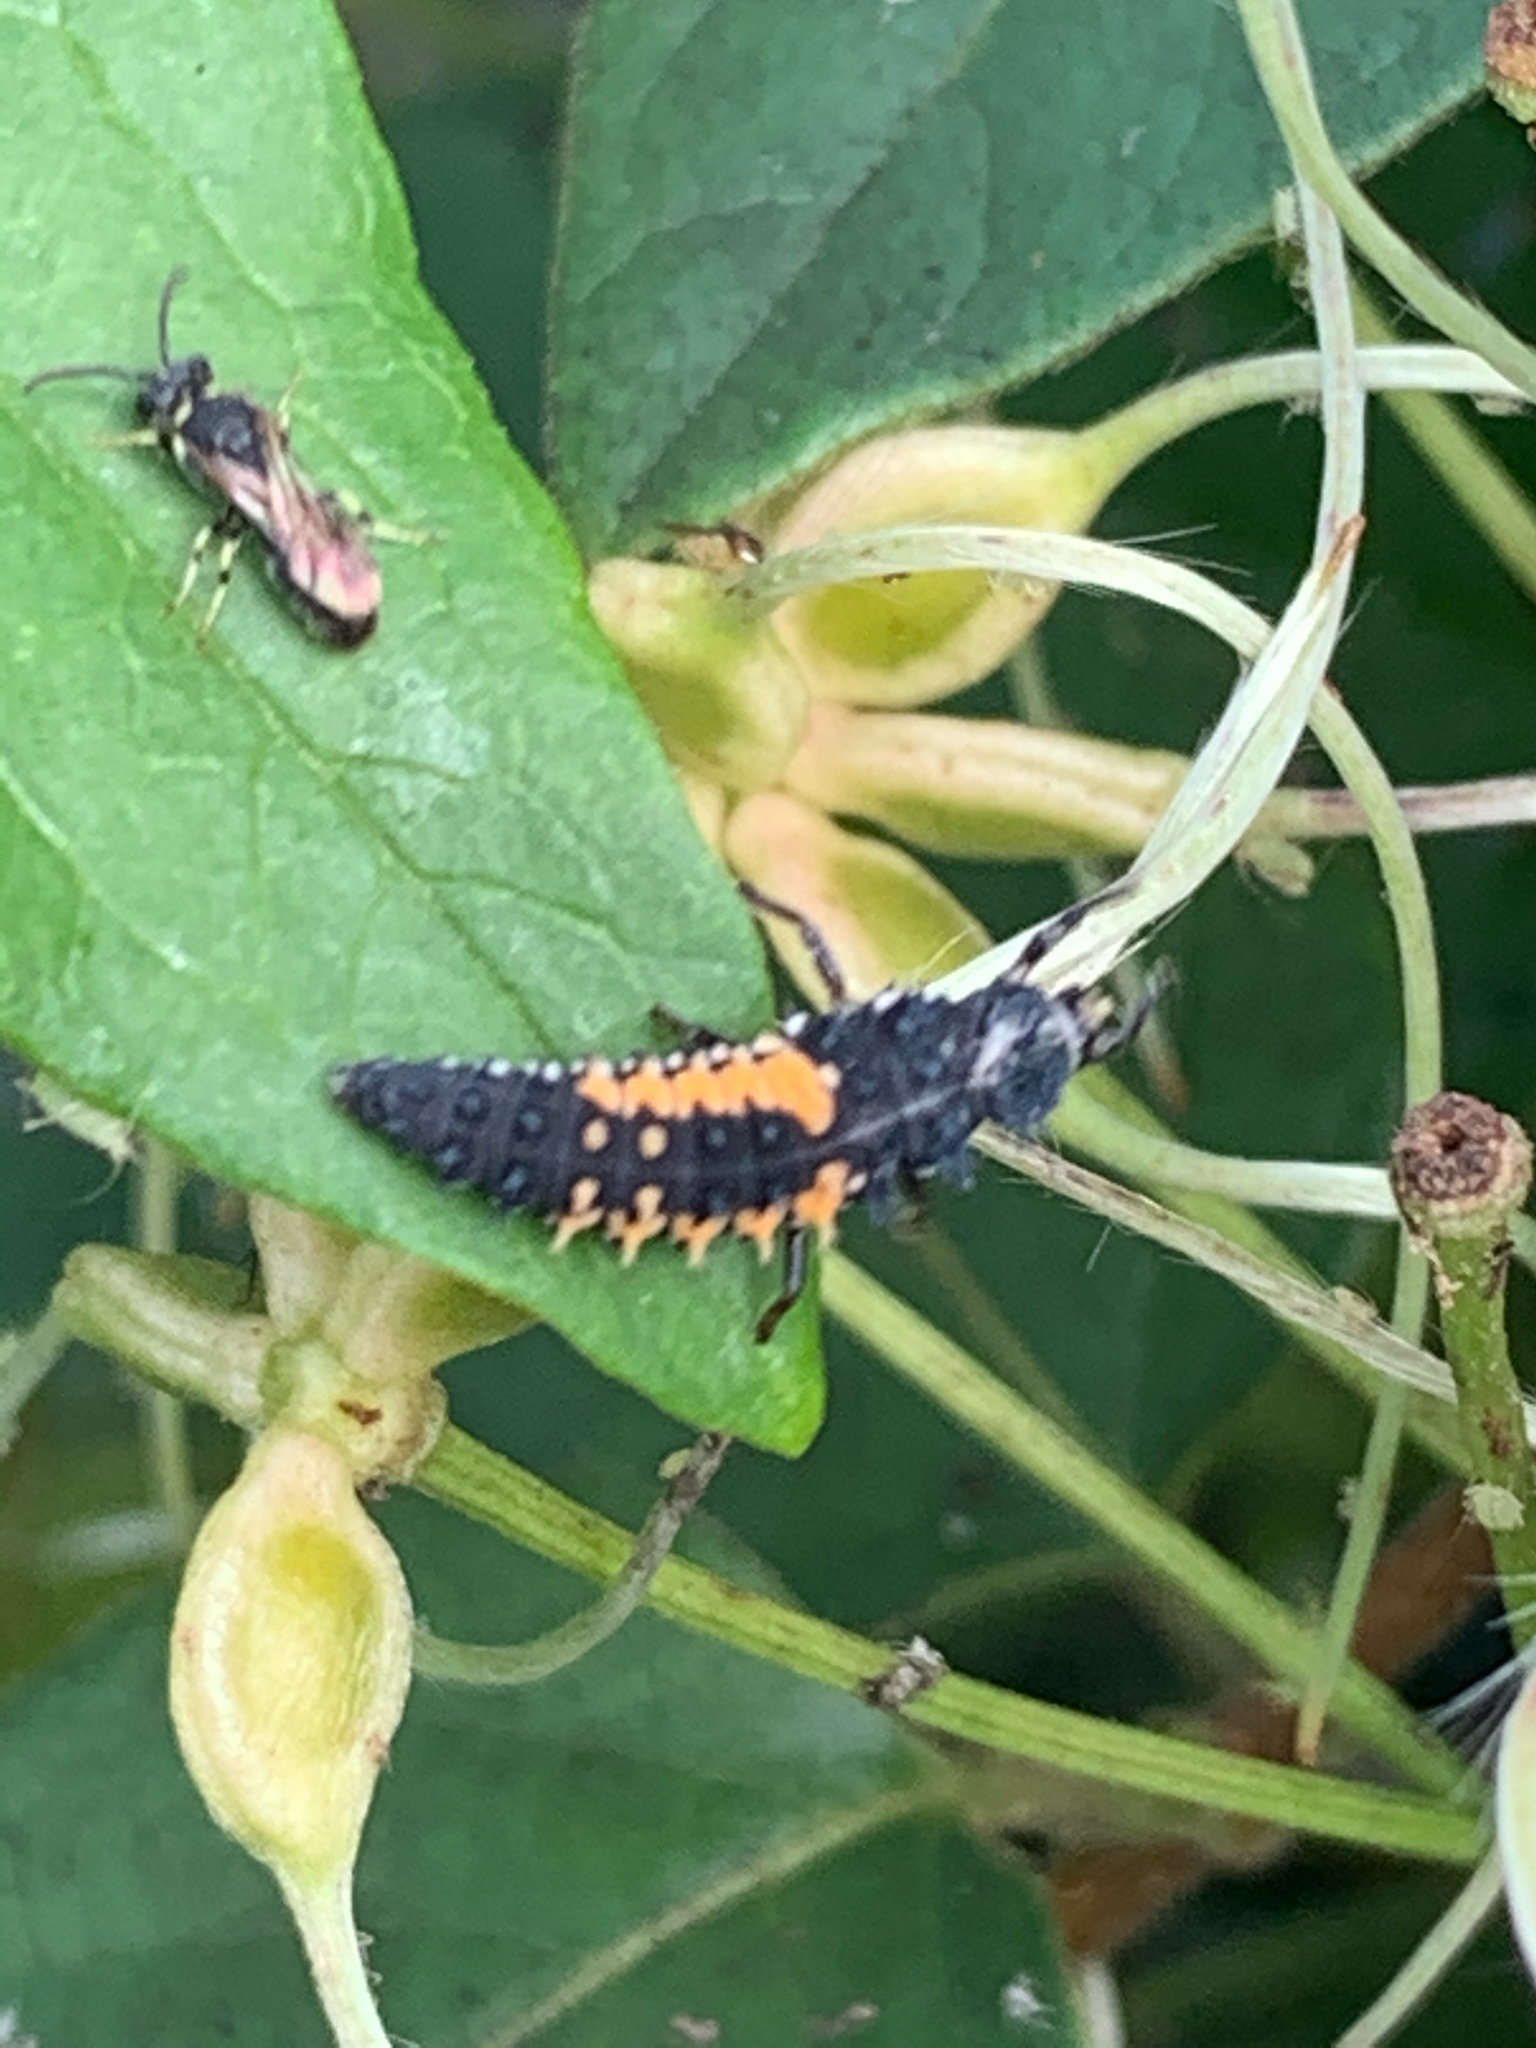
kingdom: Animalia
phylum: Arthropoda
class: Insecta
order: Coleoptera
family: Coccinellidae
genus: Harmonia
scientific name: Harmonia axyridis
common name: Harlequin ladybird
